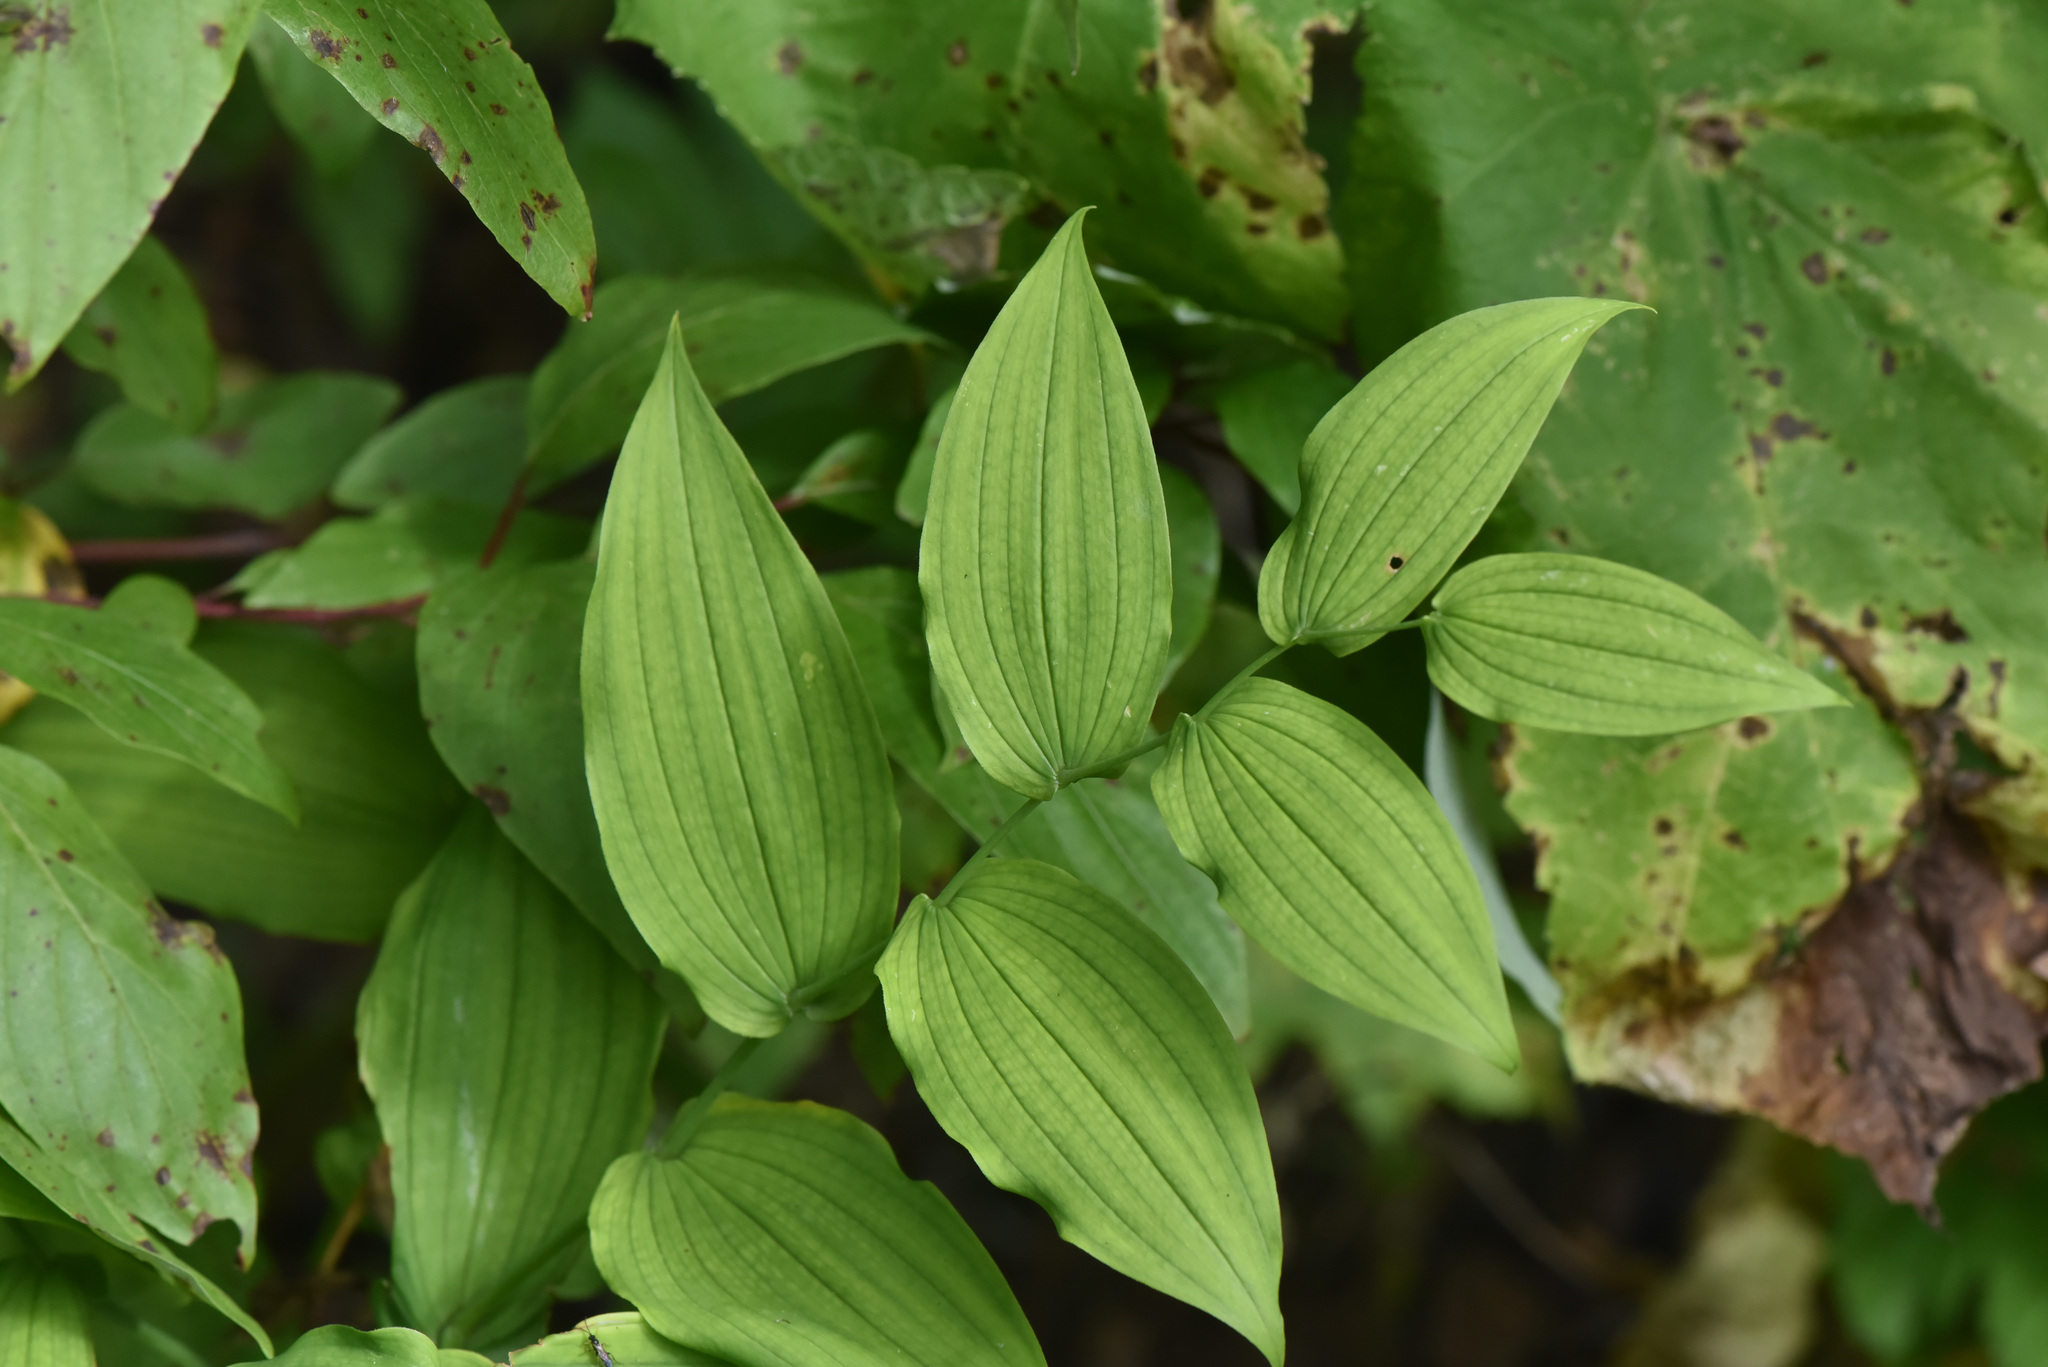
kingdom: Plantae
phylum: Tracheophyta
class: Liliopsida
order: Liliales
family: Liliaceae
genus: Streptopus
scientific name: Streptopus amplexifolius
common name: Clasp twisted stalk
